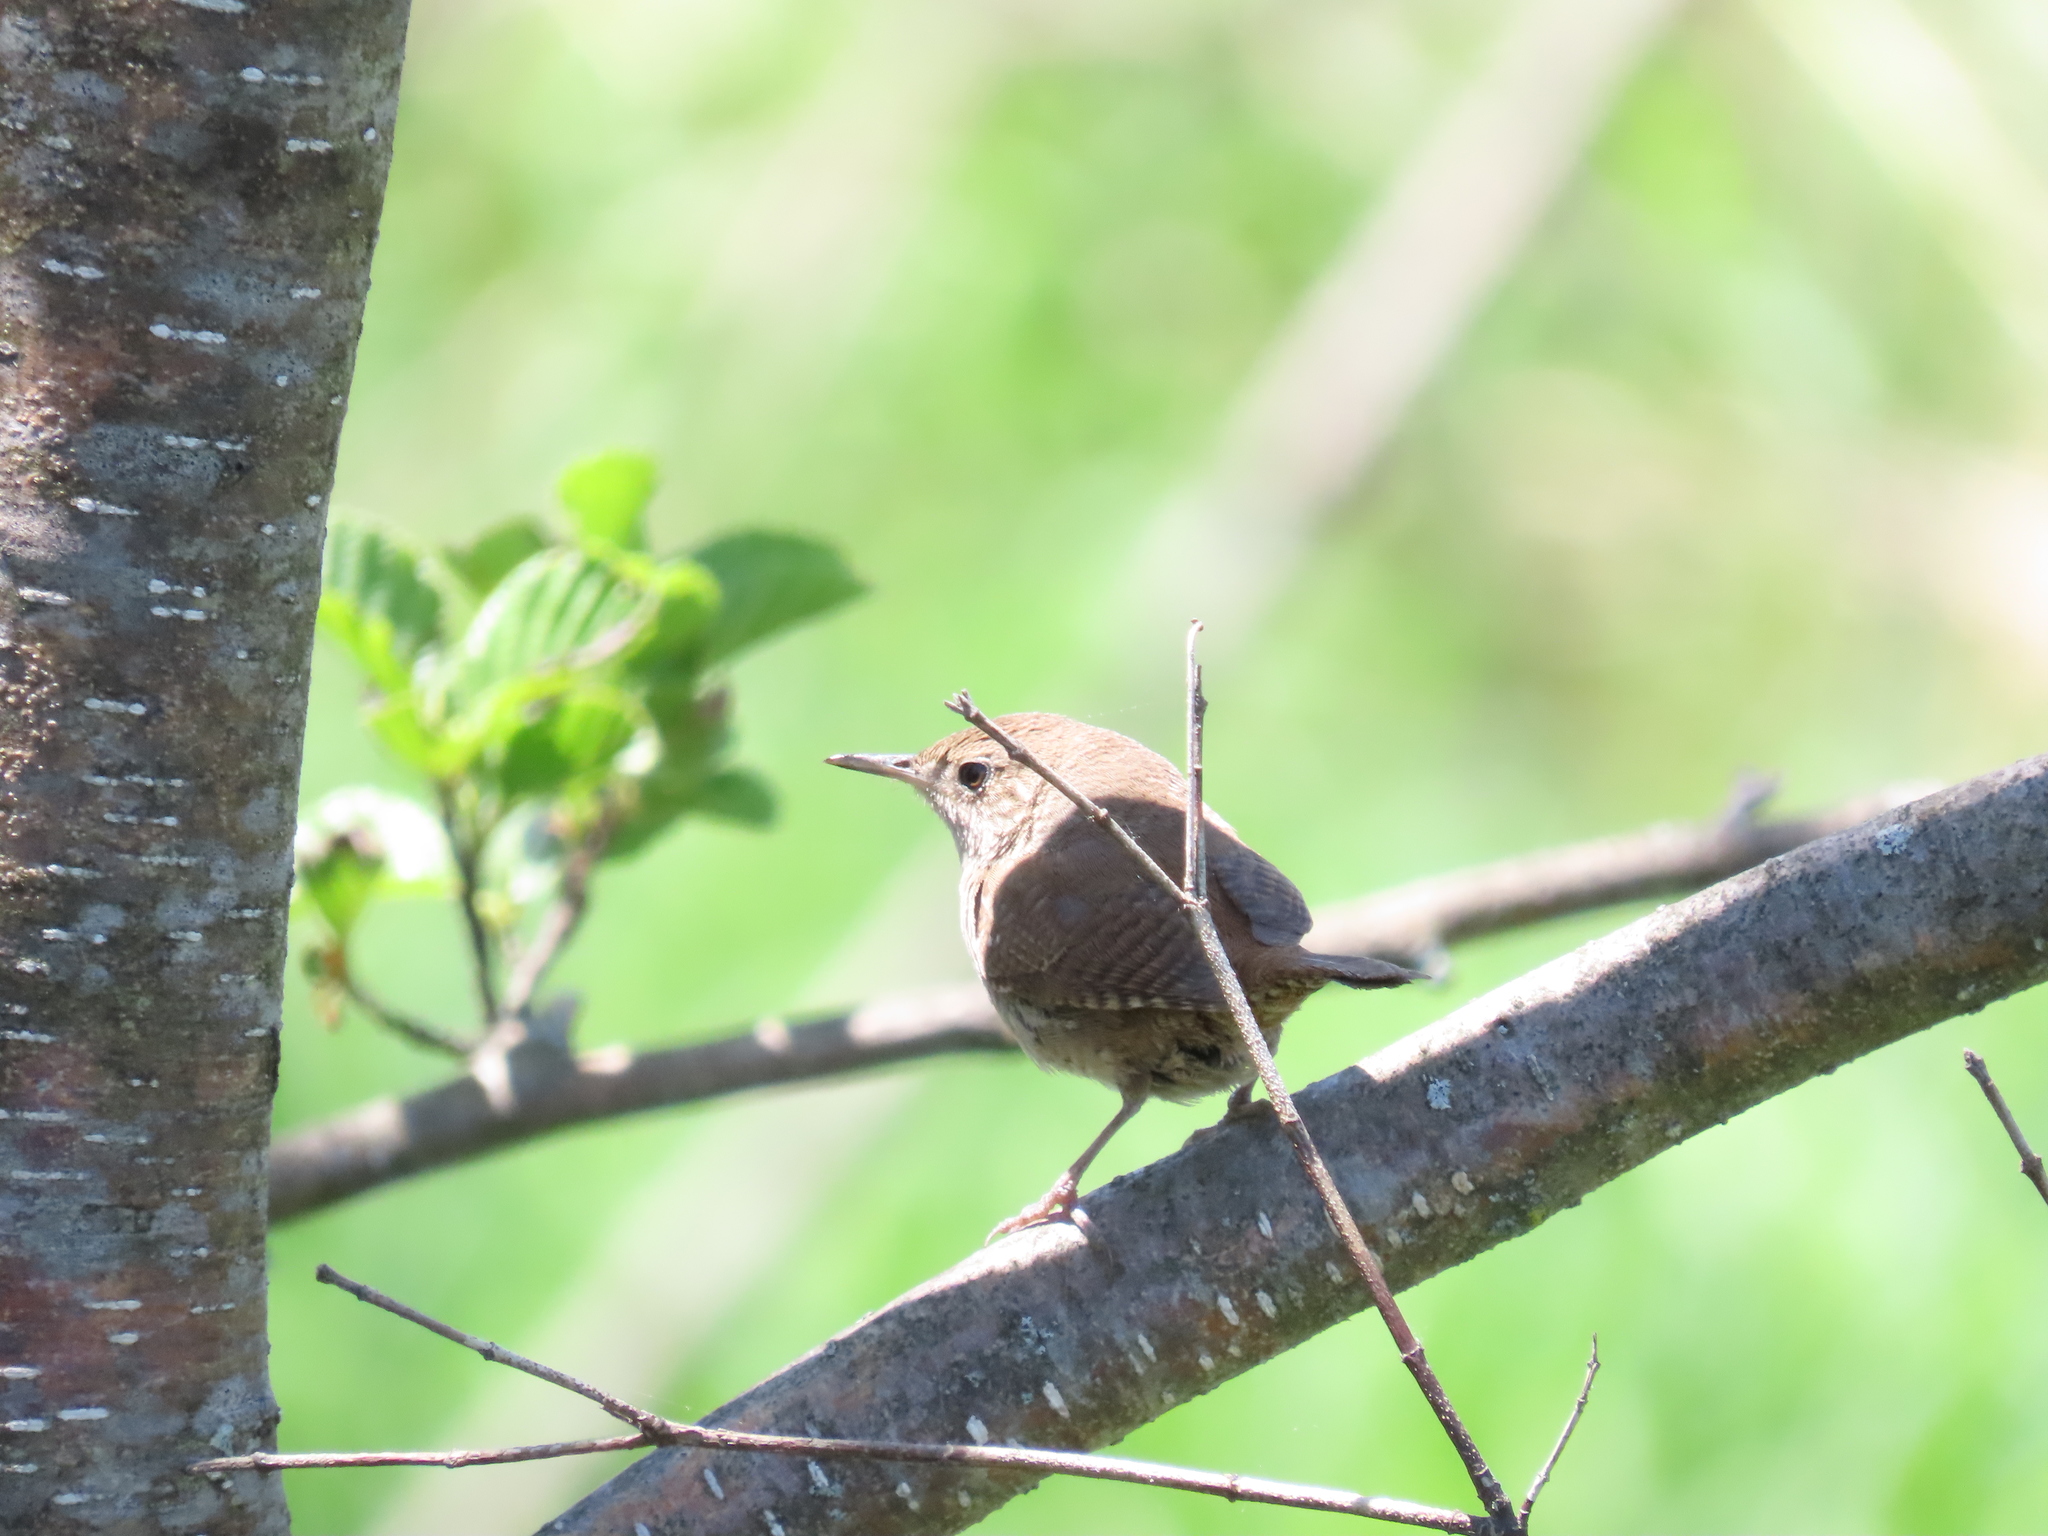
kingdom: Animalia
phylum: Chordata
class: Aves
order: Passeriformes
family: Troglodytidae
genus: Troglodytes
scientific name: Troglodytes aedon
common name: House wren
